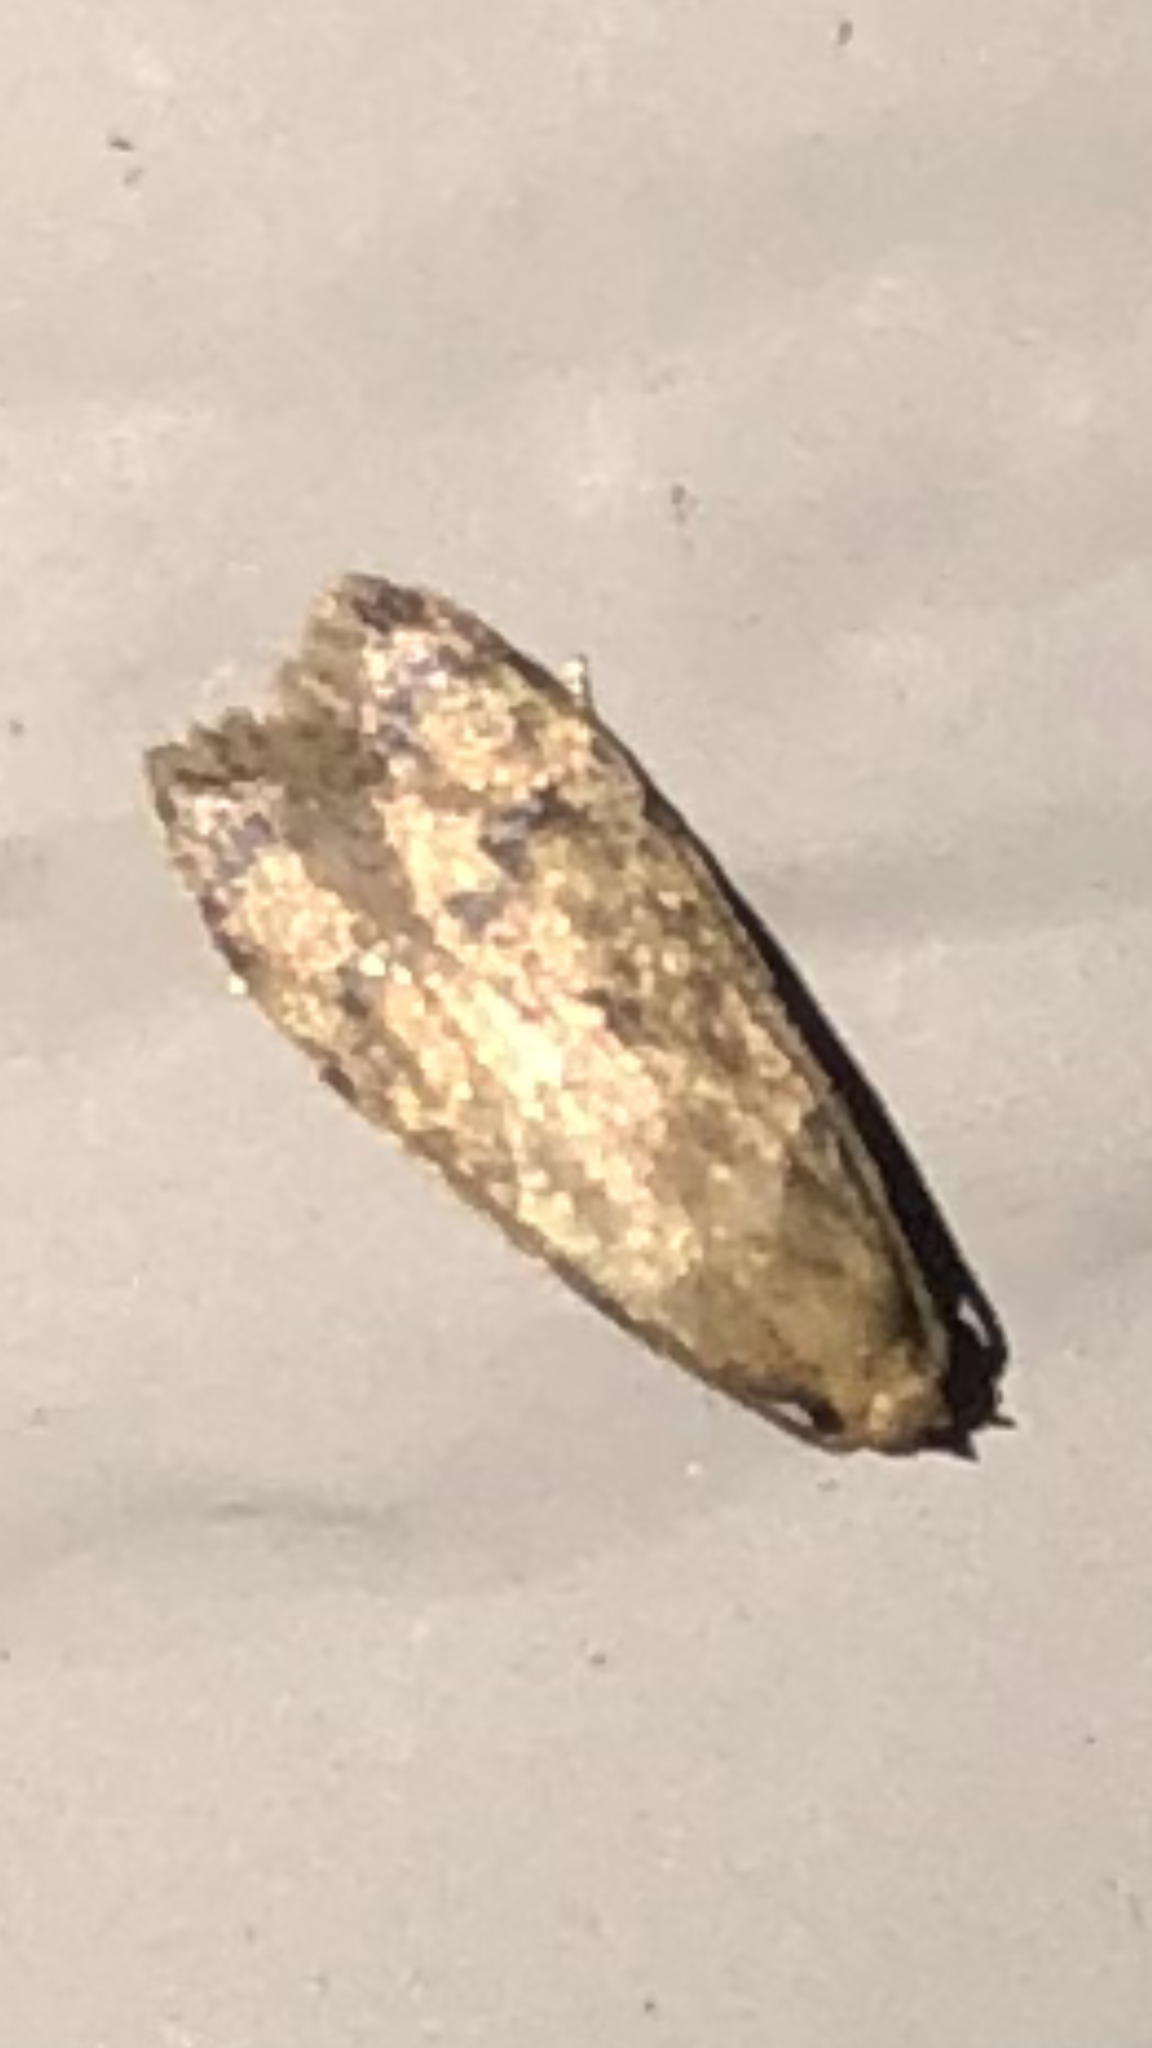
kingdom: Animalia
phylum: Arthropoda
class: Insecta
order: Lepidoptera
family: Autostichidae
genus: Gerdana
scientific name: Gerdana caritella
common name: Gerdana moth
